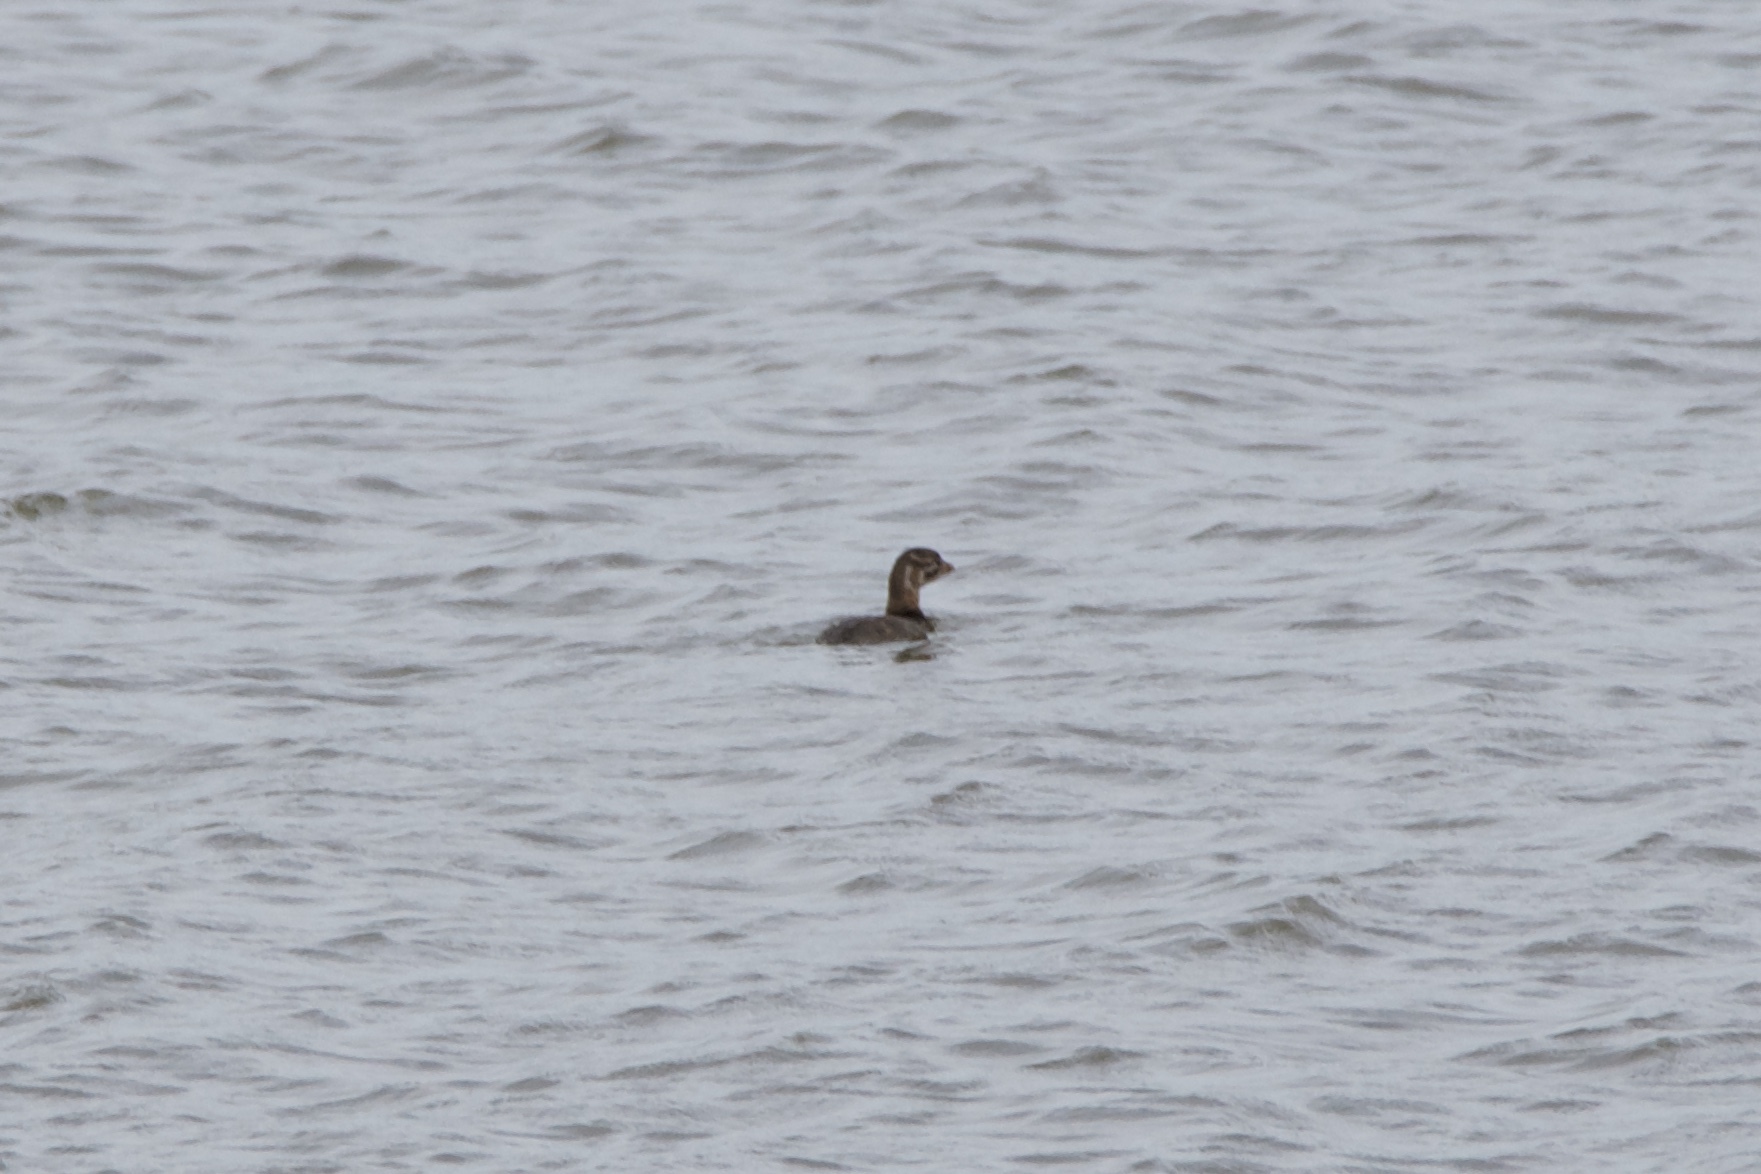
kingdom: Animalia
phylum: Chordata
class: Aves
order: Podicipediformes
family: Podicipedidae
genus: Podilymbus
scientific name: Podilymbus podiceps
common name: Pied-billed grebe
